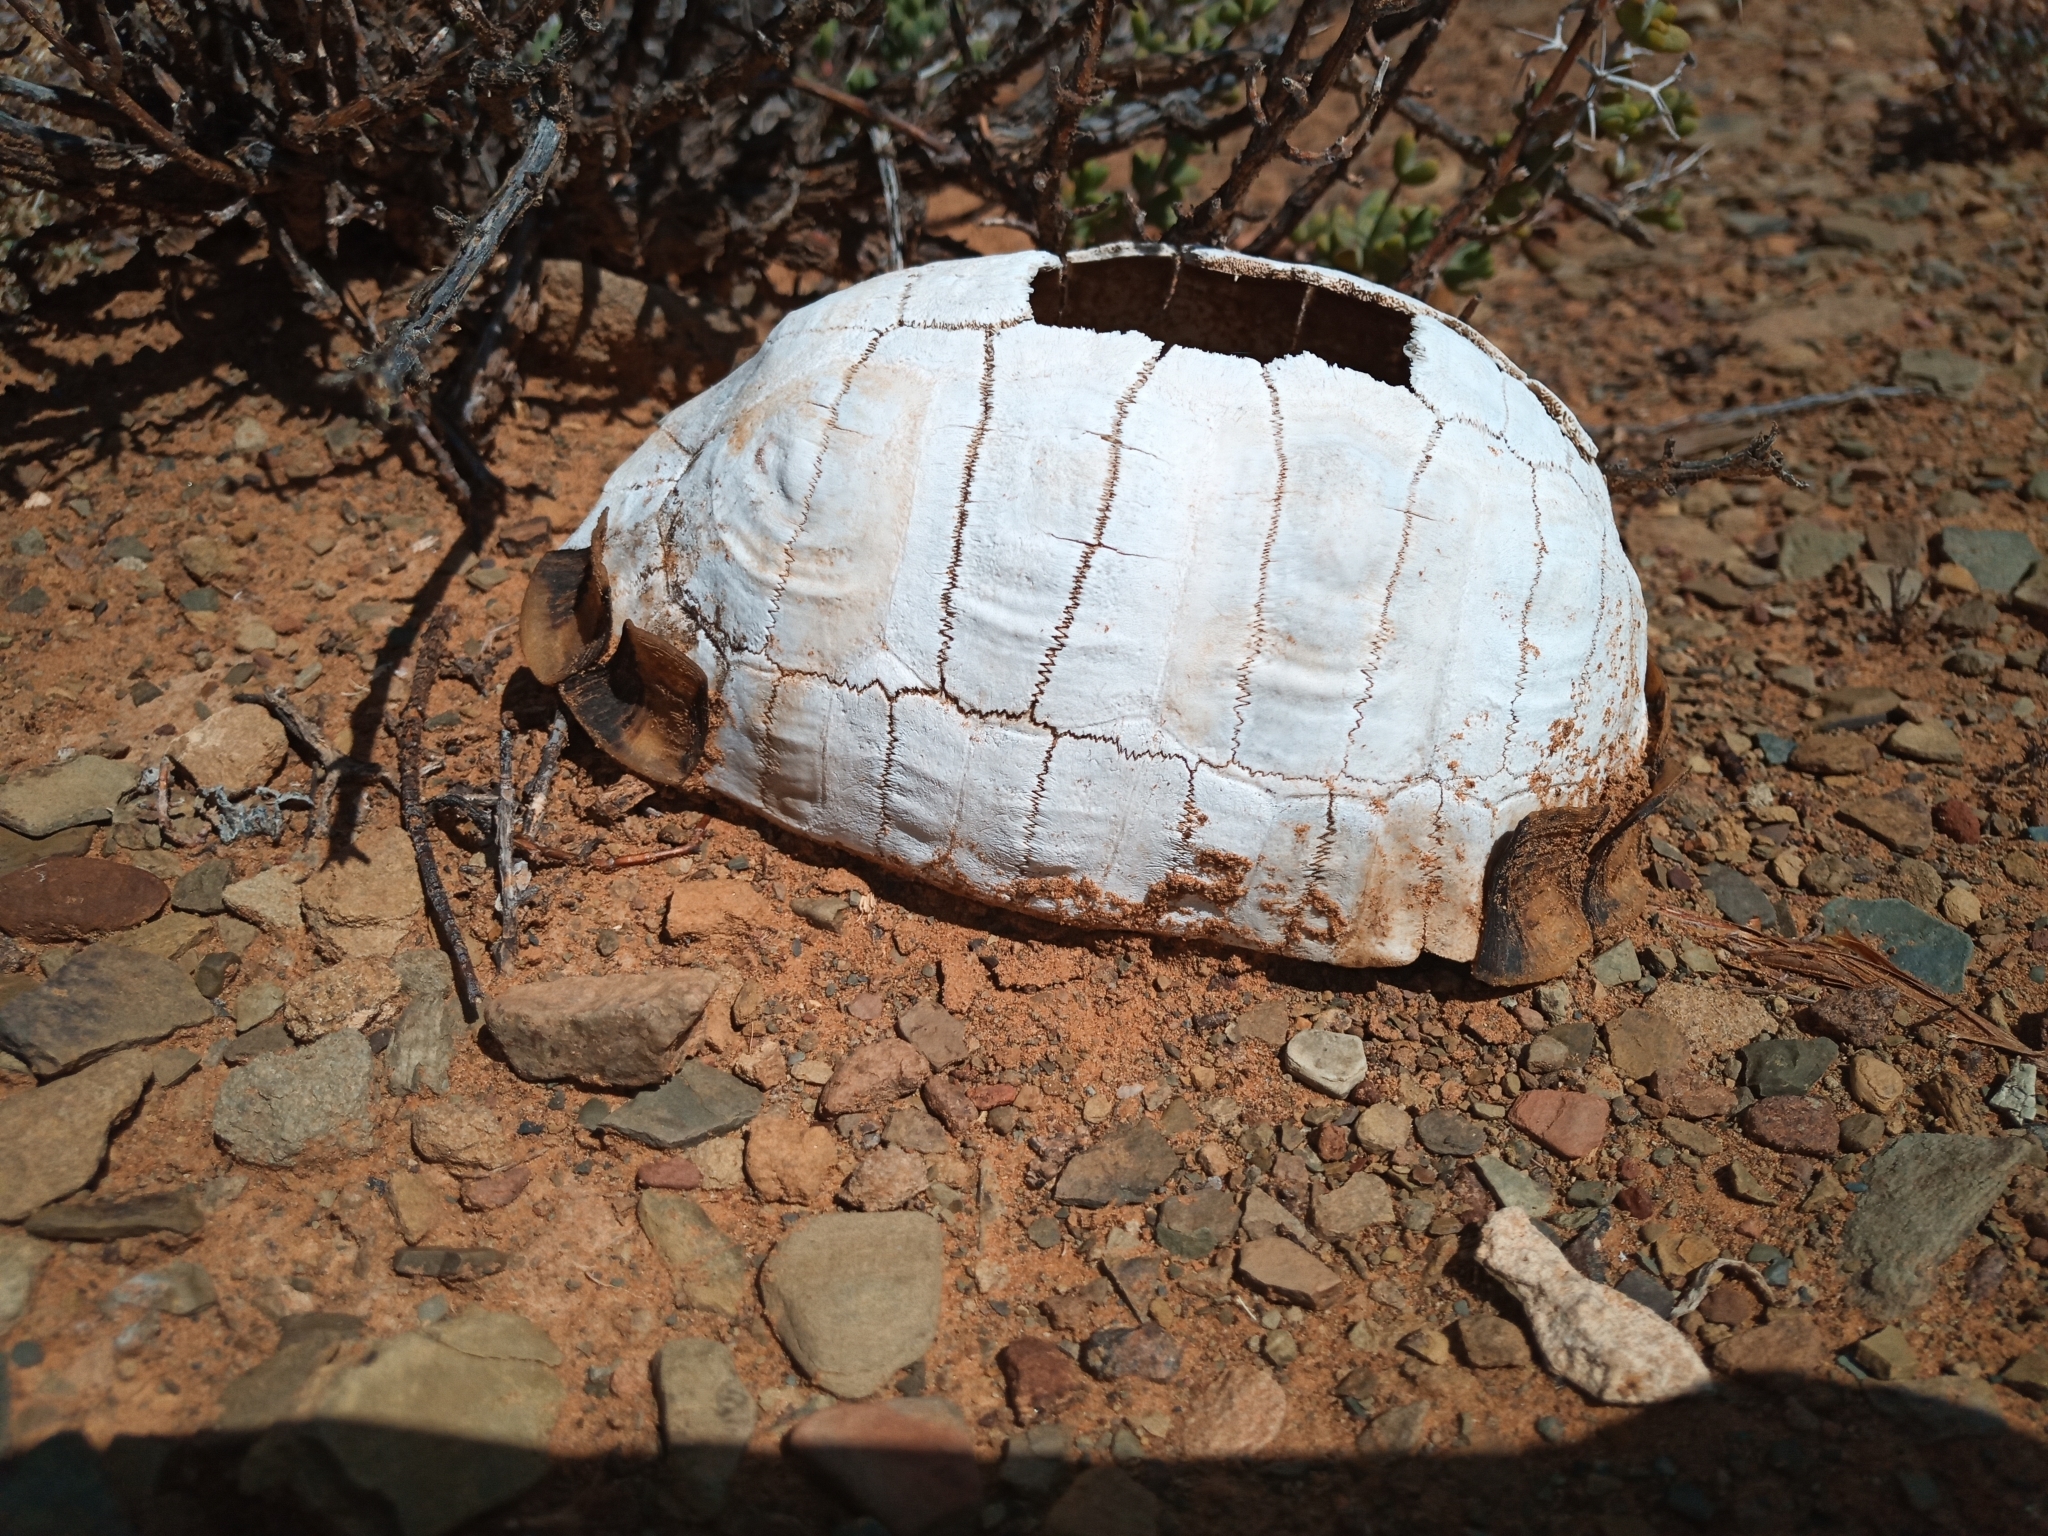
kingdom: Animalia
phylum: Chordata
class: Testudines
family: Testudinidae
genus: Chersina
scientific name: Chersina angulata
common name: South african bowsprit tortoise
